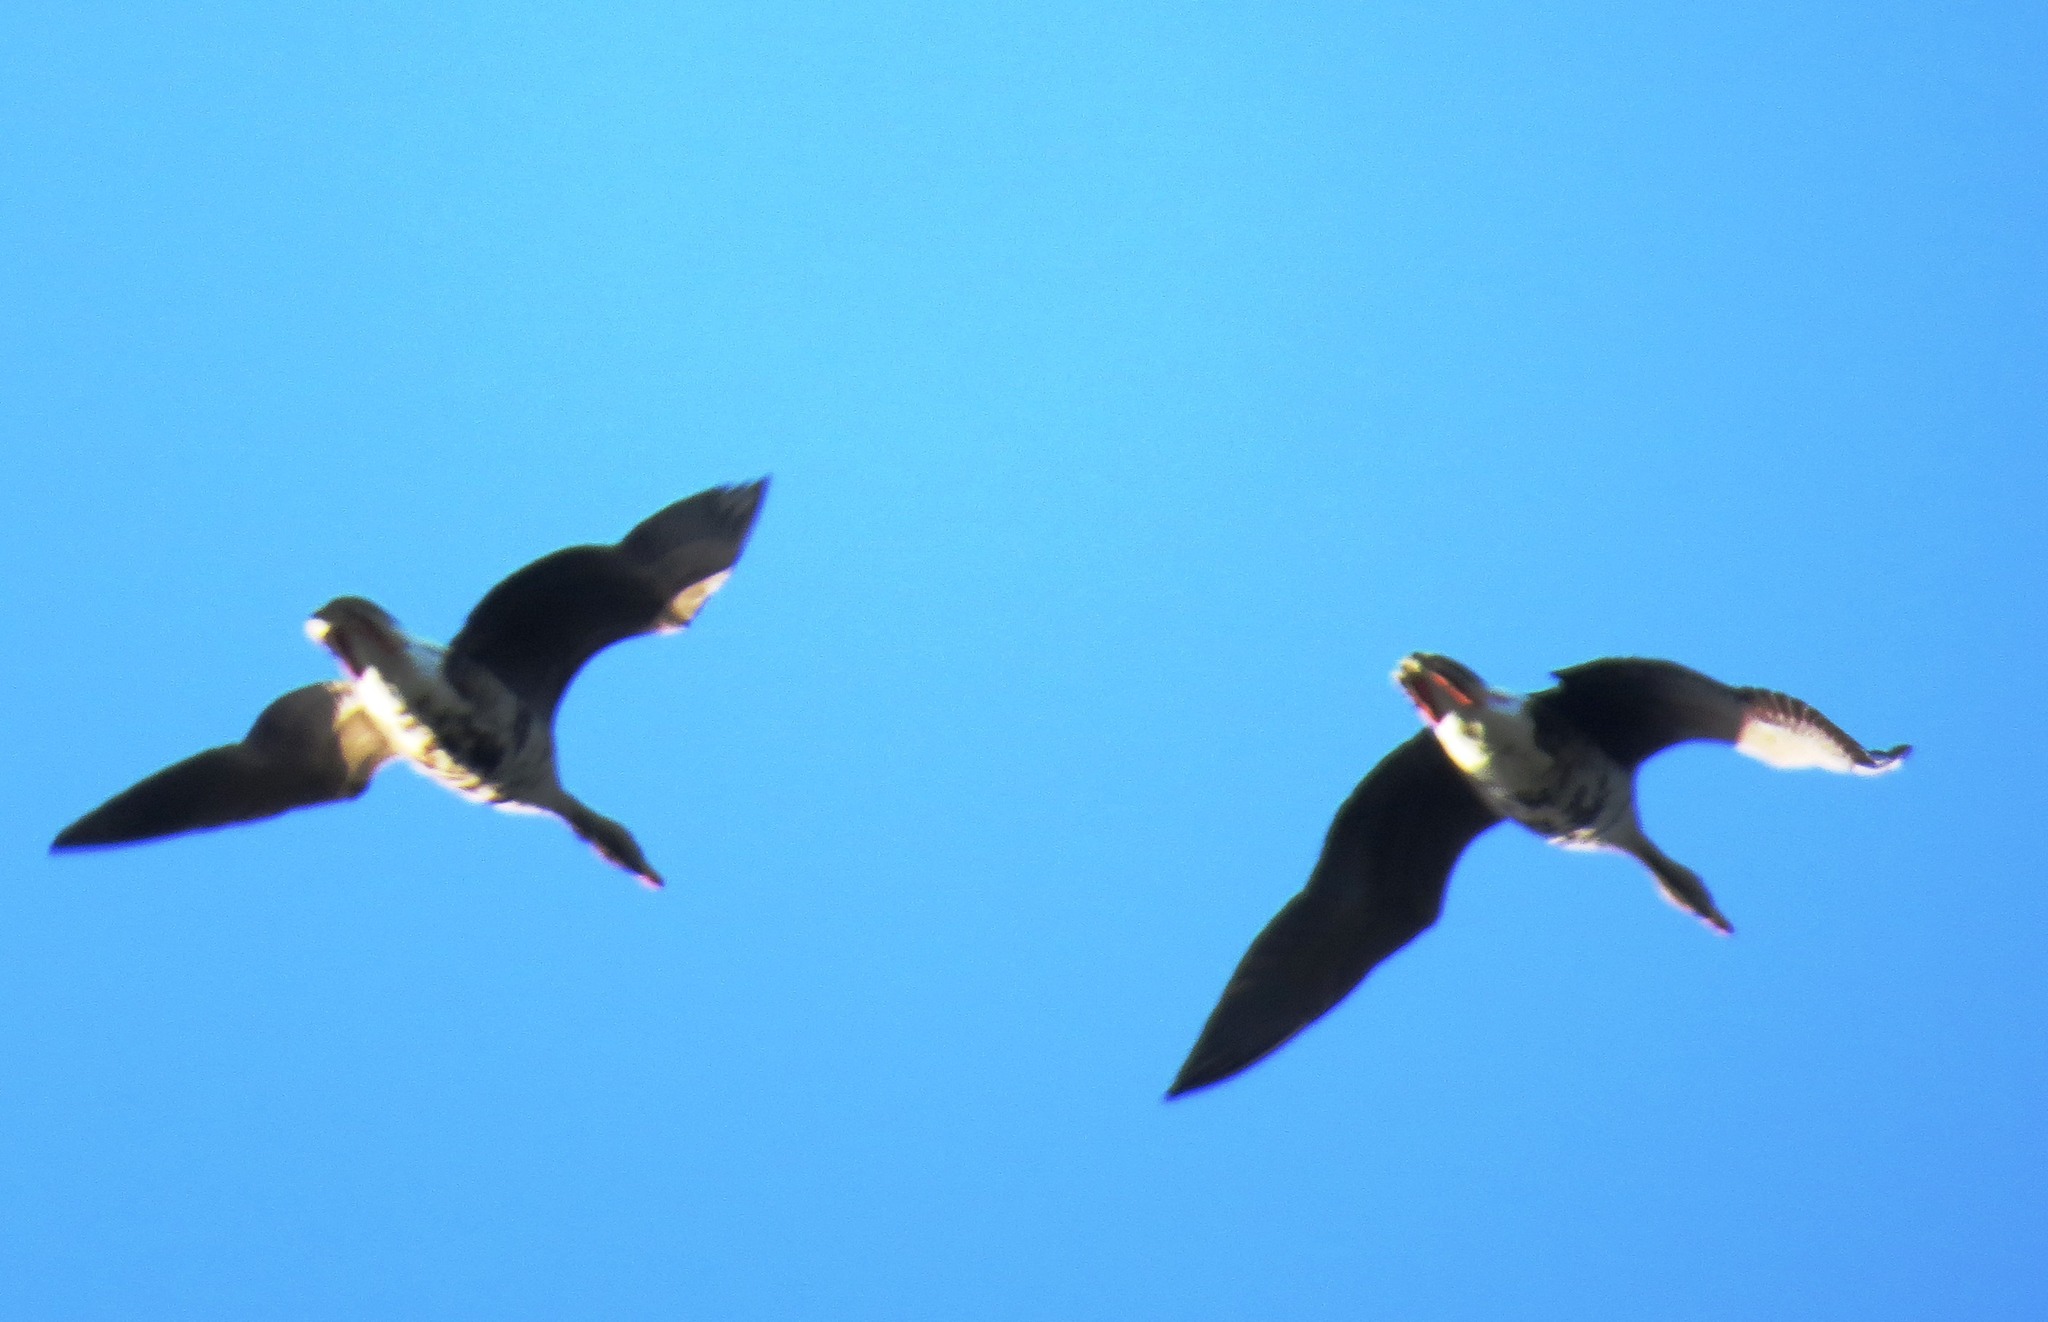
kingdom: Animalia
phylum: Chordata
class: Aves
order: Anseriformes
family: Anatidae
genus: Anser
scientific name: Anser albifrons
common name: Greater white-fronted goose
